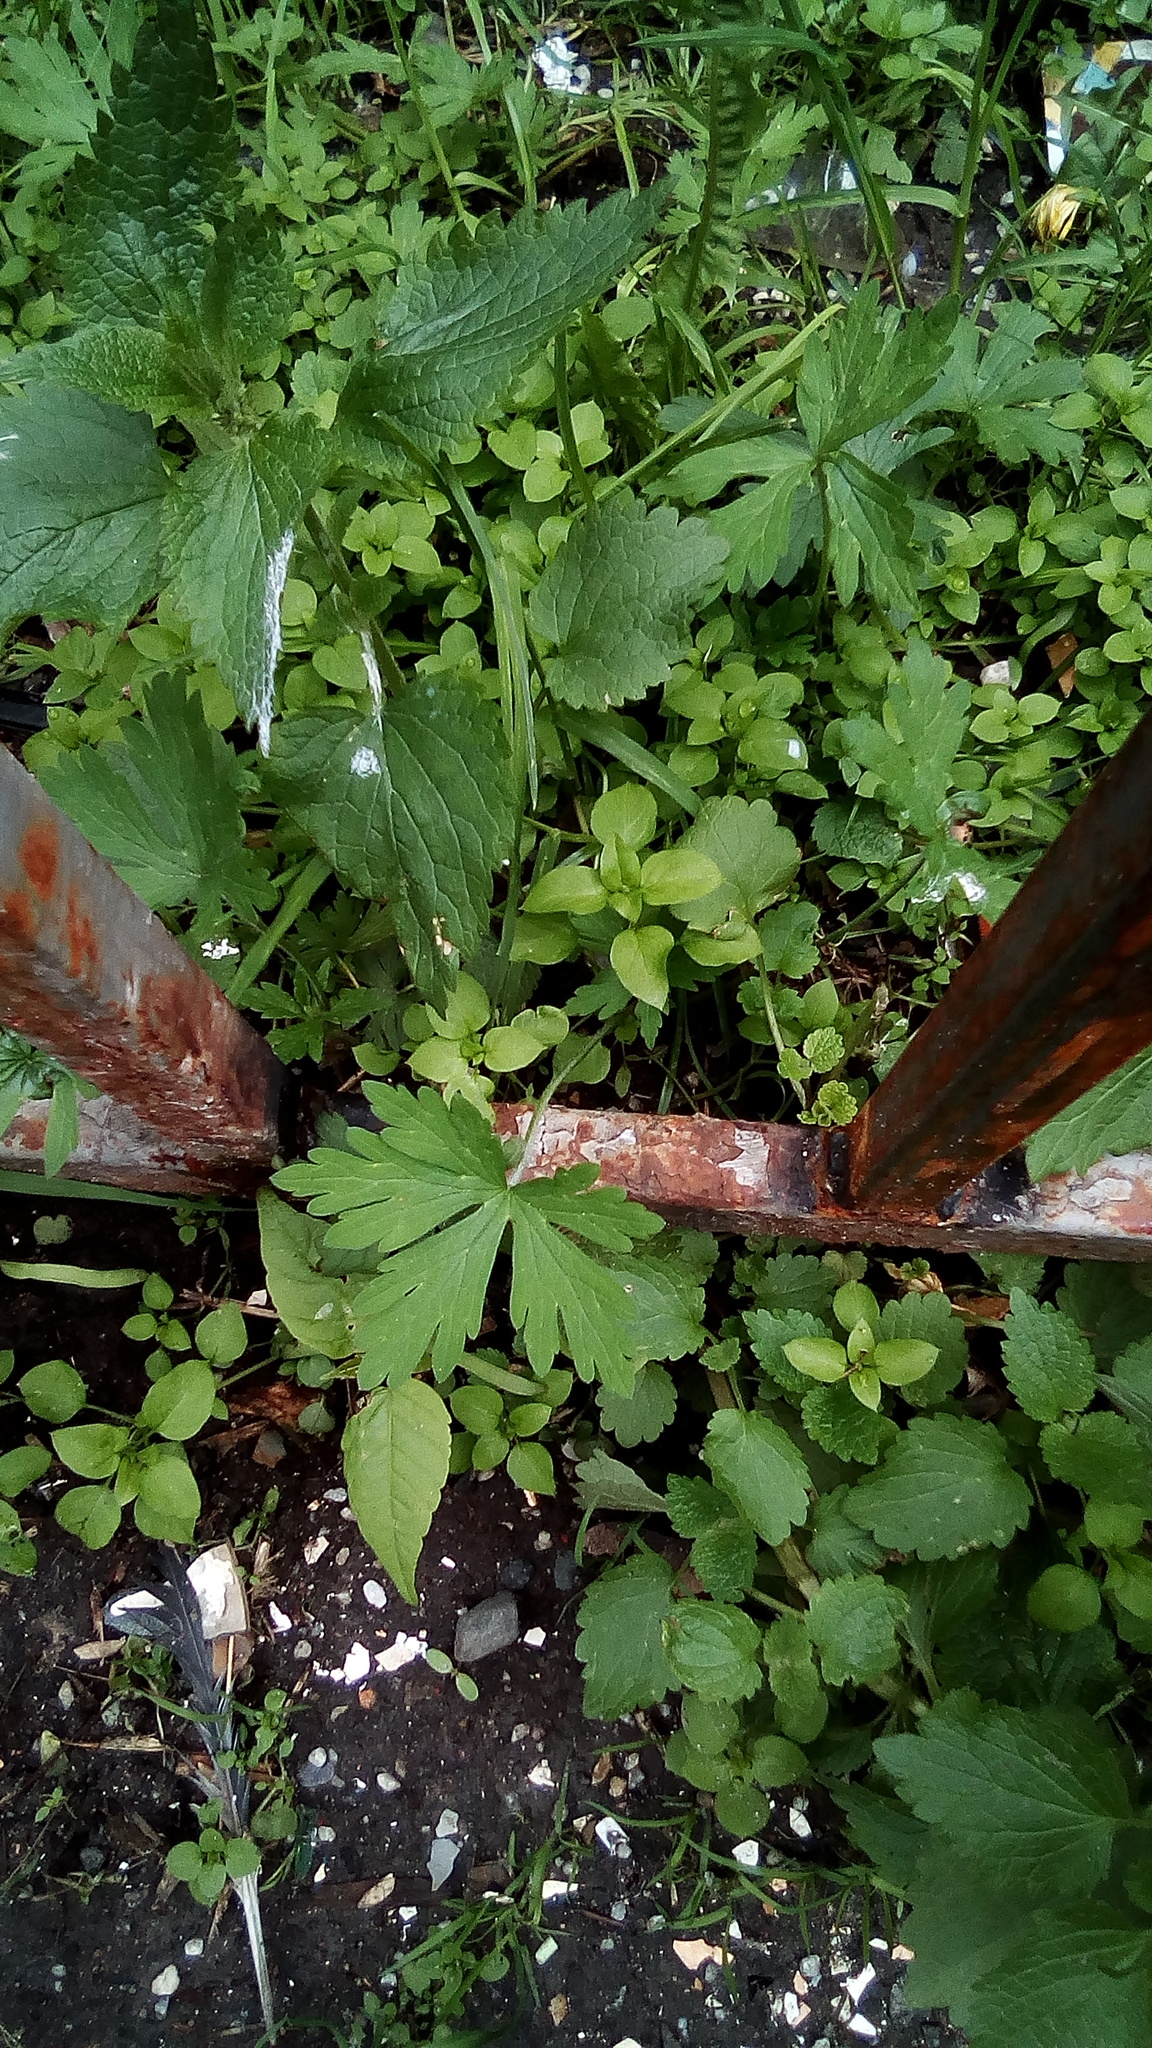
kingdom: Plantae
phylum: Tracheophyta
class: Magnoliopsida
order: Caryophyllales
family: Caryophyllaceae
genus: Stellaria
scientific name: Stellaria media
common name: Common chickweed
